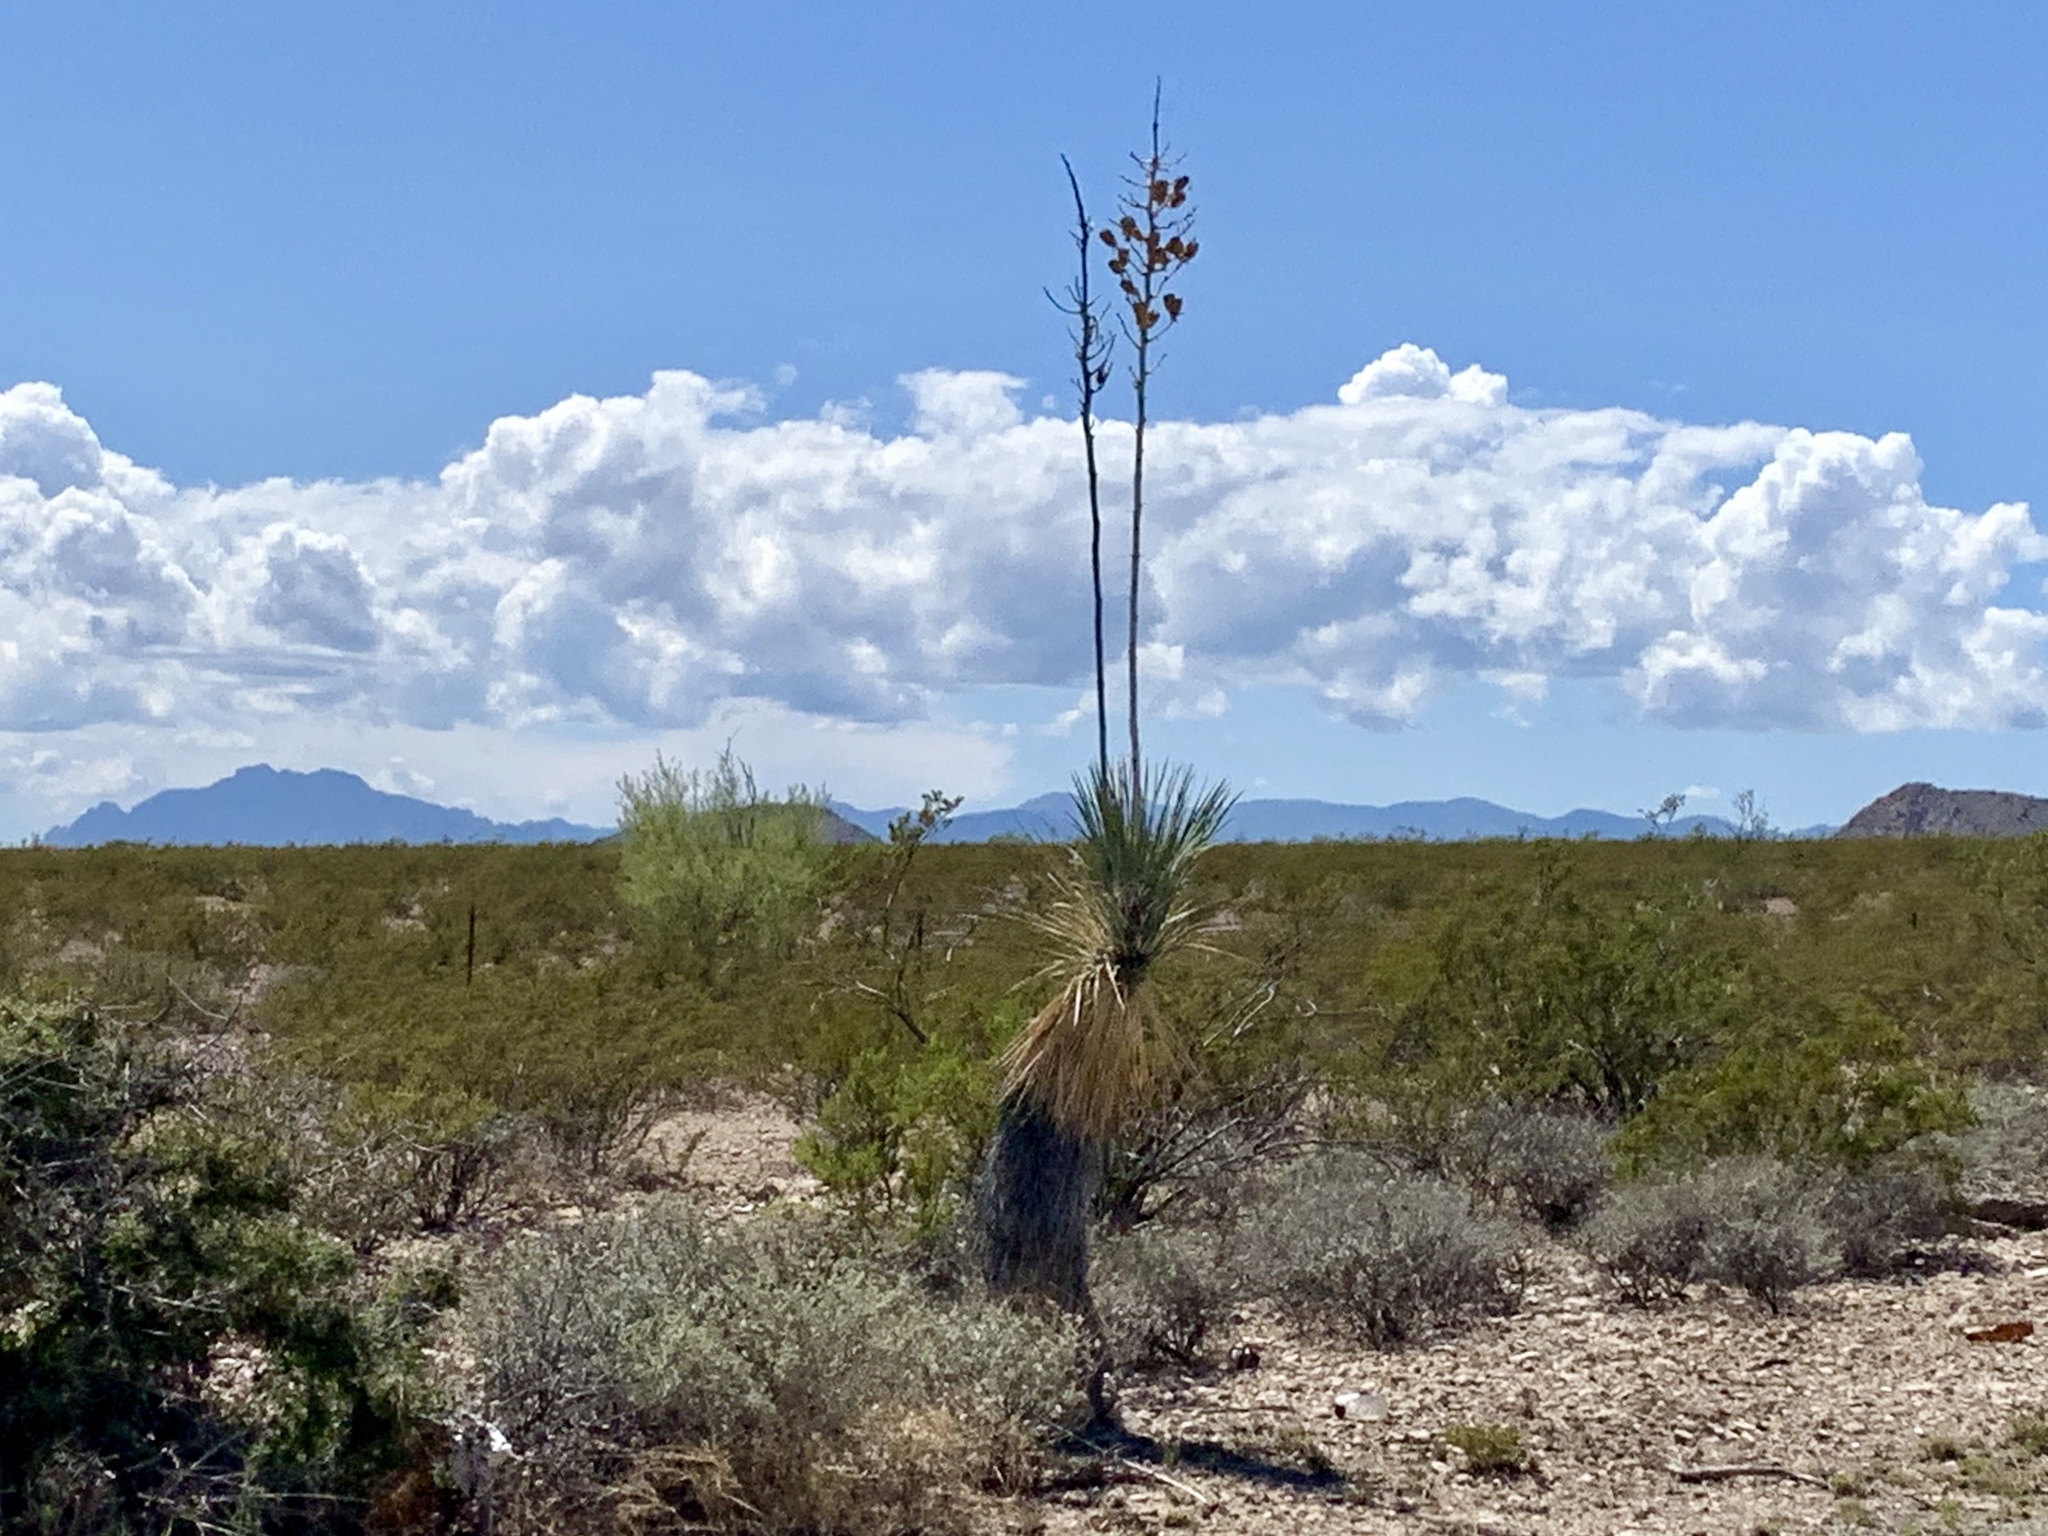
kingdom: Plantae
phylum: Tracheophyta
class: Liliopsida
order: Asparagales
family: Asparagaceae
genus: Yucca
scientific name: Yucca elata
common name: Palmella
